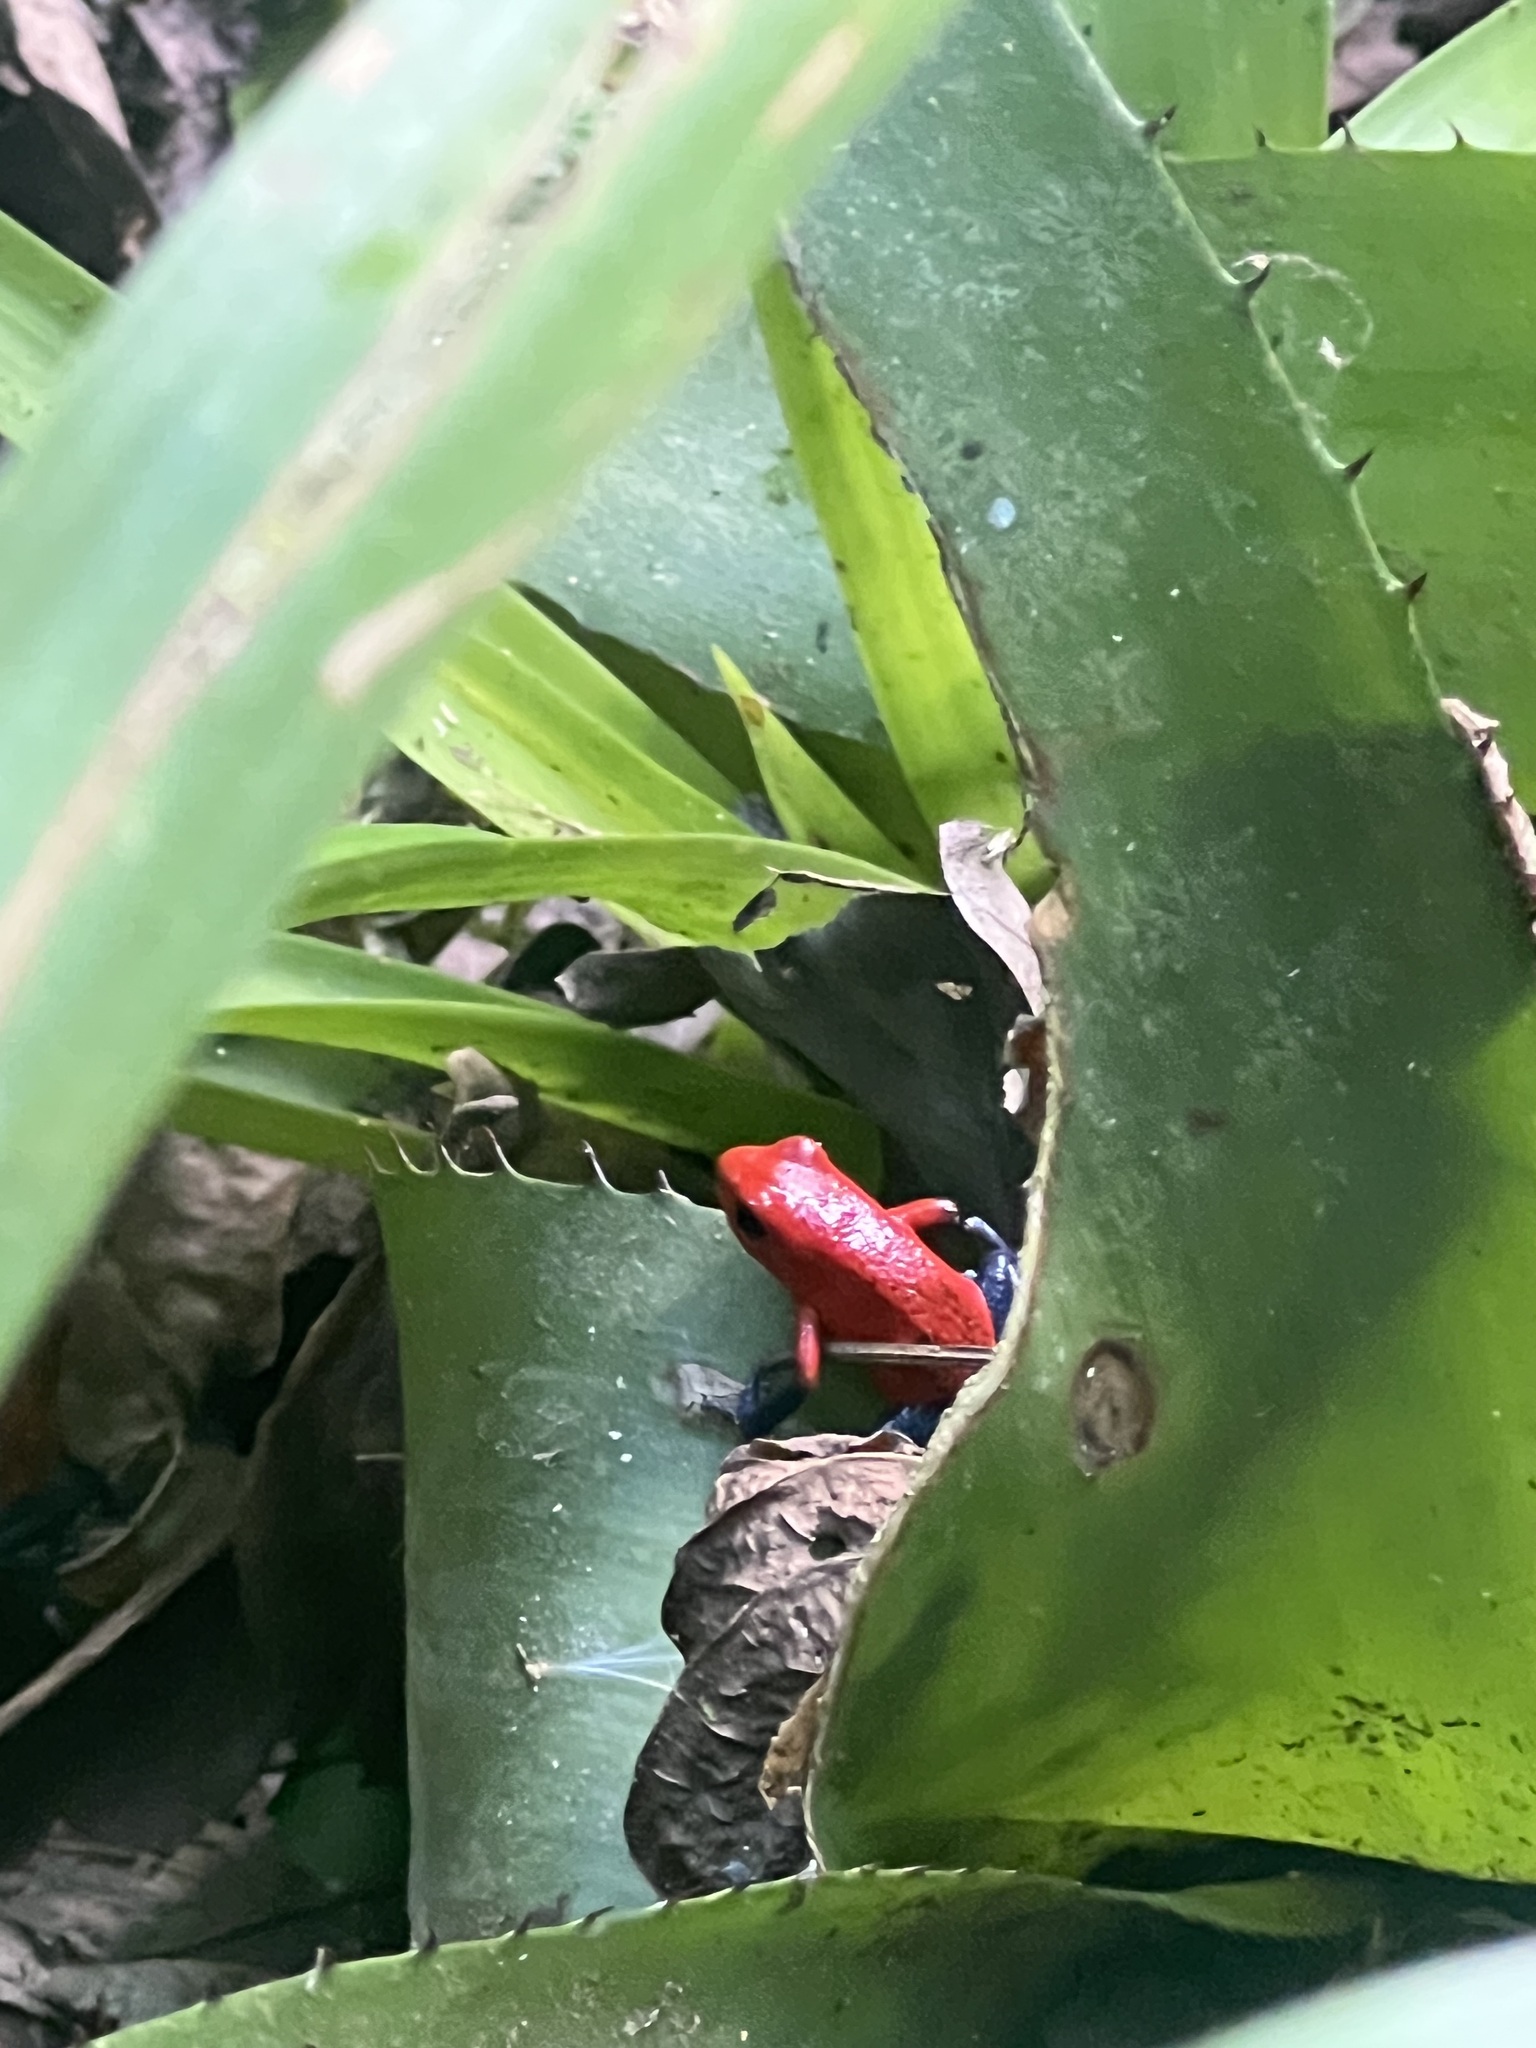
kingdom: Animalia
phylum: Chordata
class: Amphibia
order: Anura
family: Dendrobatidae
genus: Oophaga
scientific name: Oophaga pumilio
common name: Flaming poison frog
